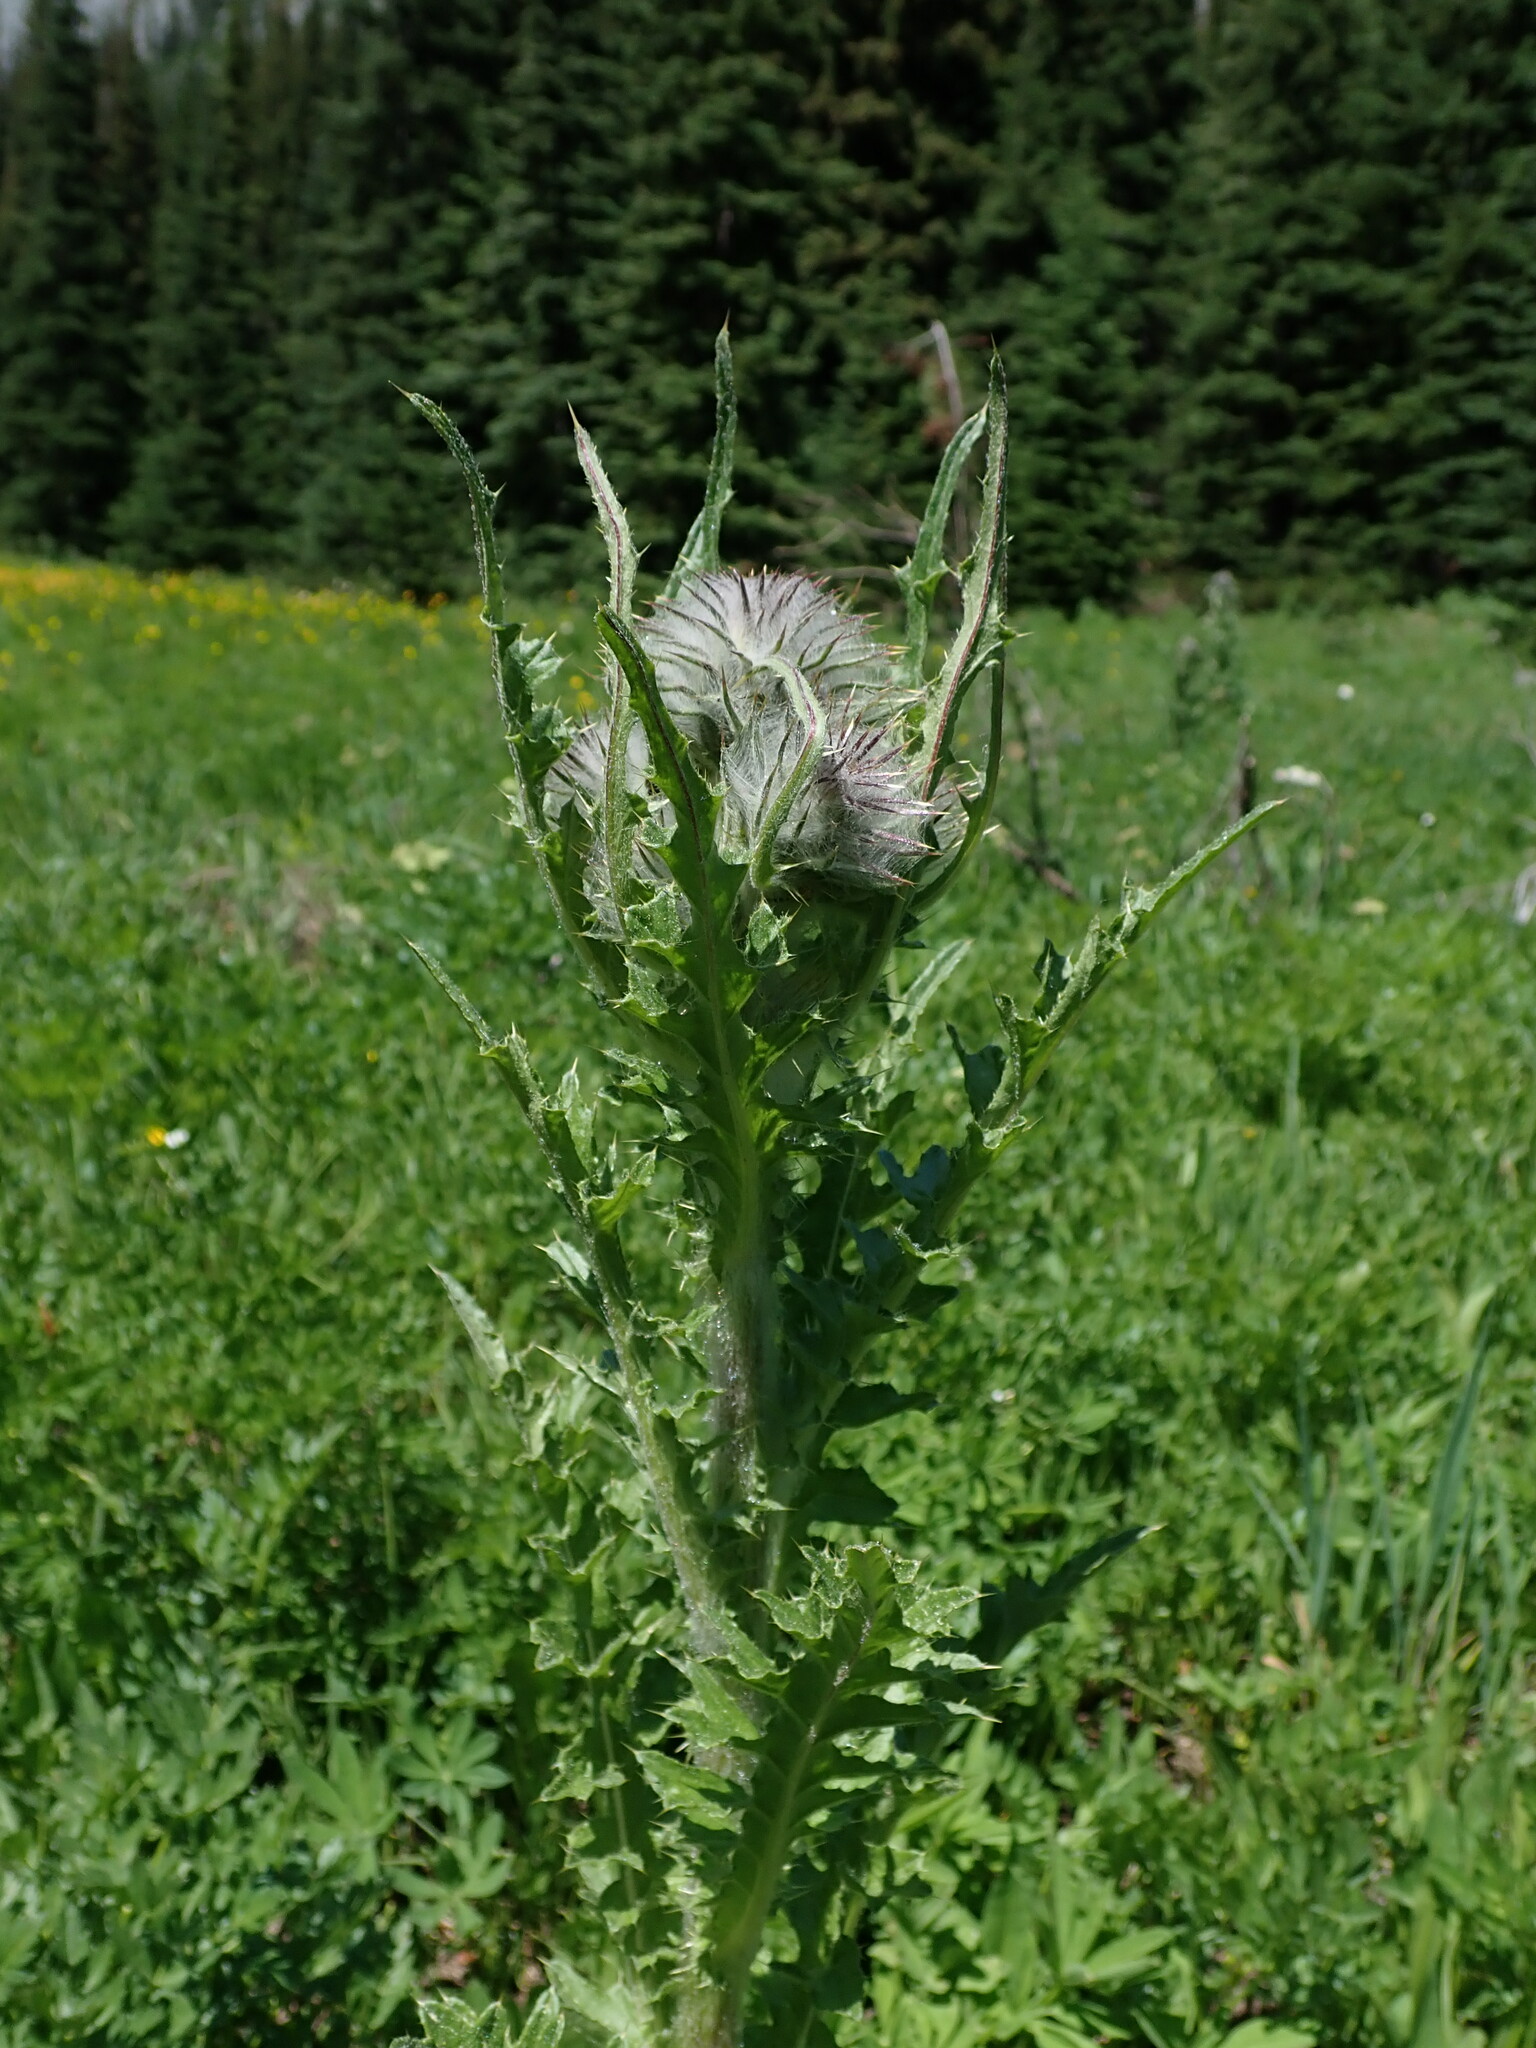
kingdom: Plantae
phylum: Tracheophyta
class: Magnoliopsida
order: Asterales
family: Asteraceae
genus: Cirsium
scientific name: Cirsium edule
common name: Indian thistle
